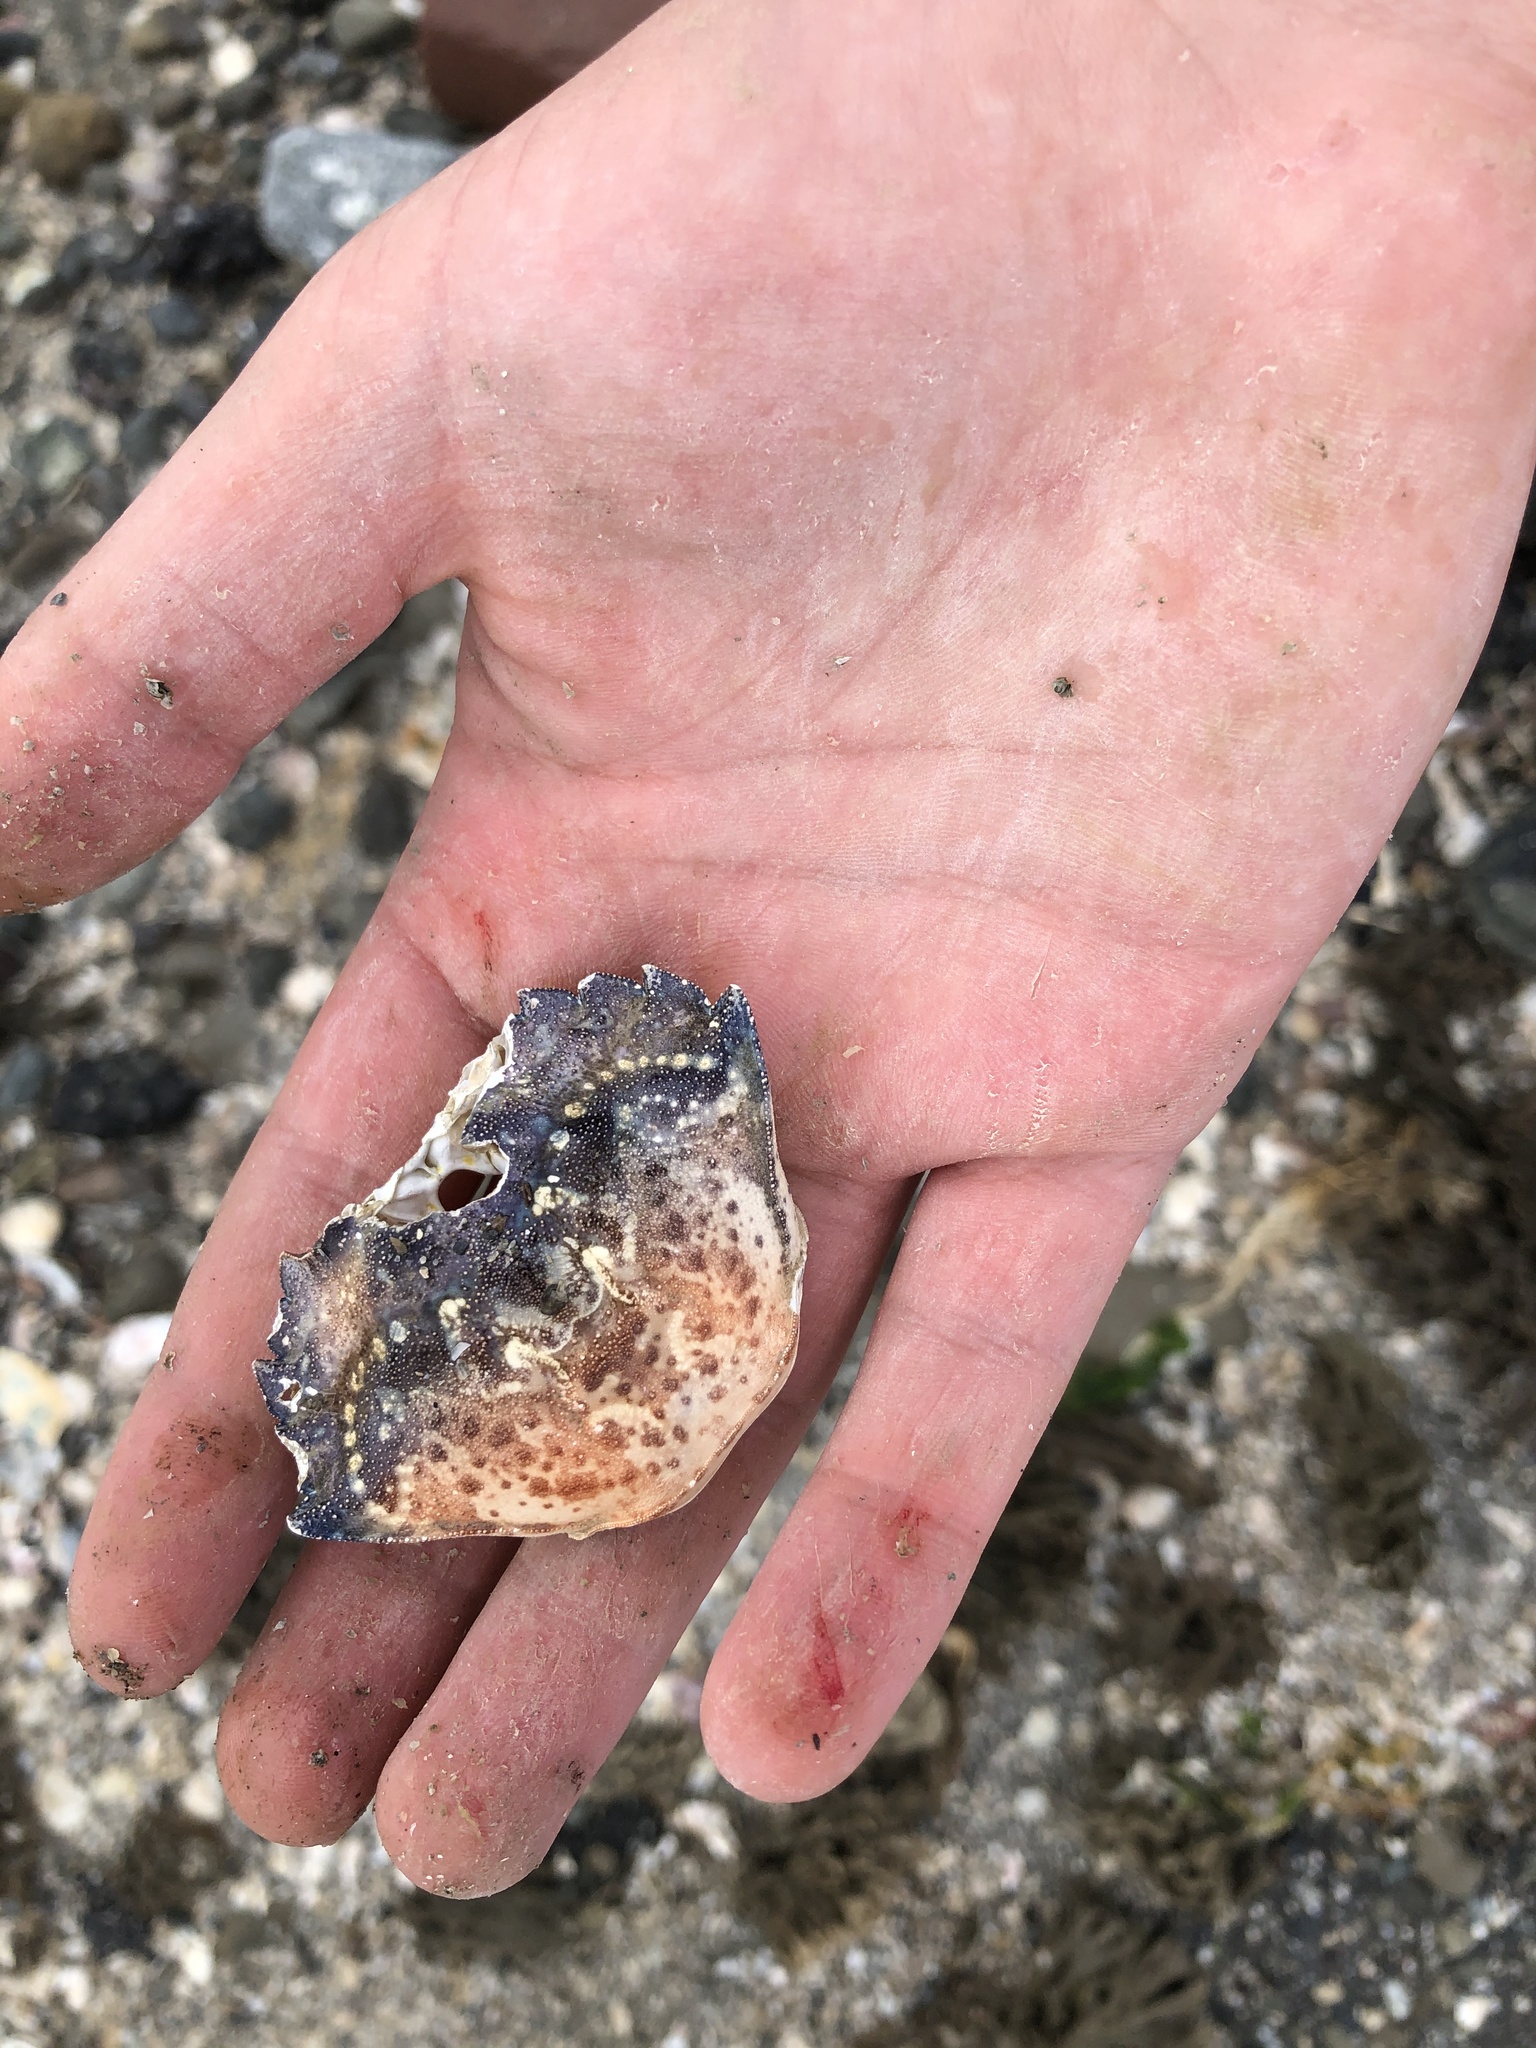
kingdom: Animalia
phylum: Arthropoda
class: Malacostraca
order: Decapoda
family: Carcinidae
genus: Carcinus
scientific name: Carcinus maenas
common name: European green crab
